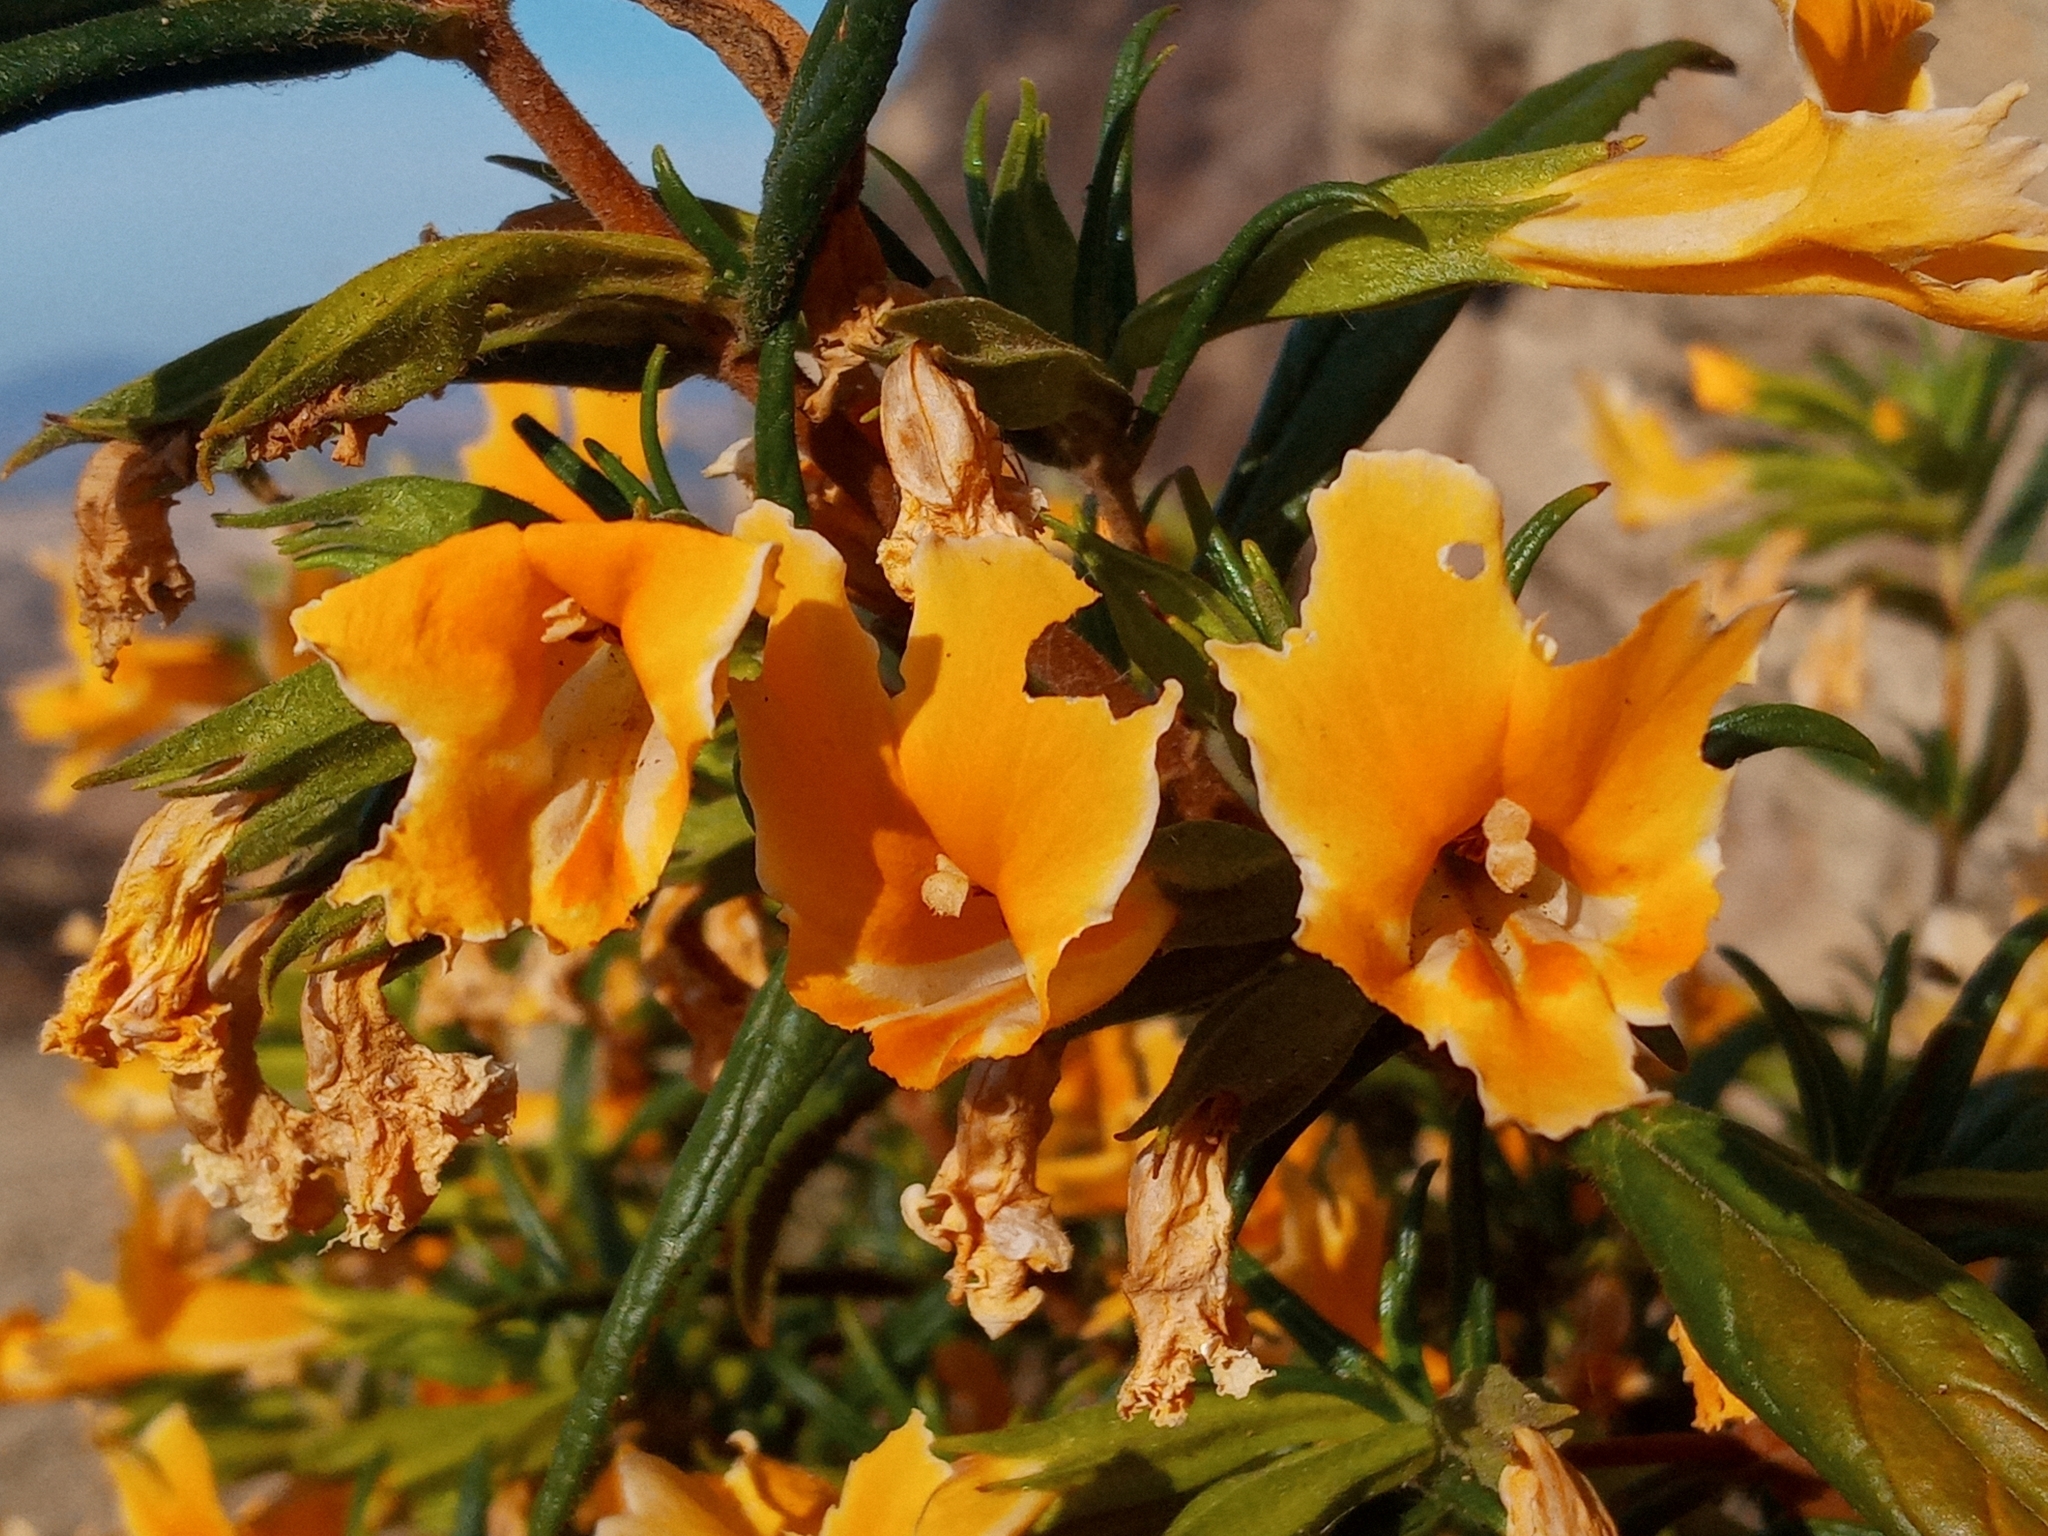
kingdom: Plantae
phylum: Tracheophyta
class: Magnoliopsida
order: Lamiales
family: Phrymaceae
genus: Diplacus
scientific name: Diplacus longiflorus
